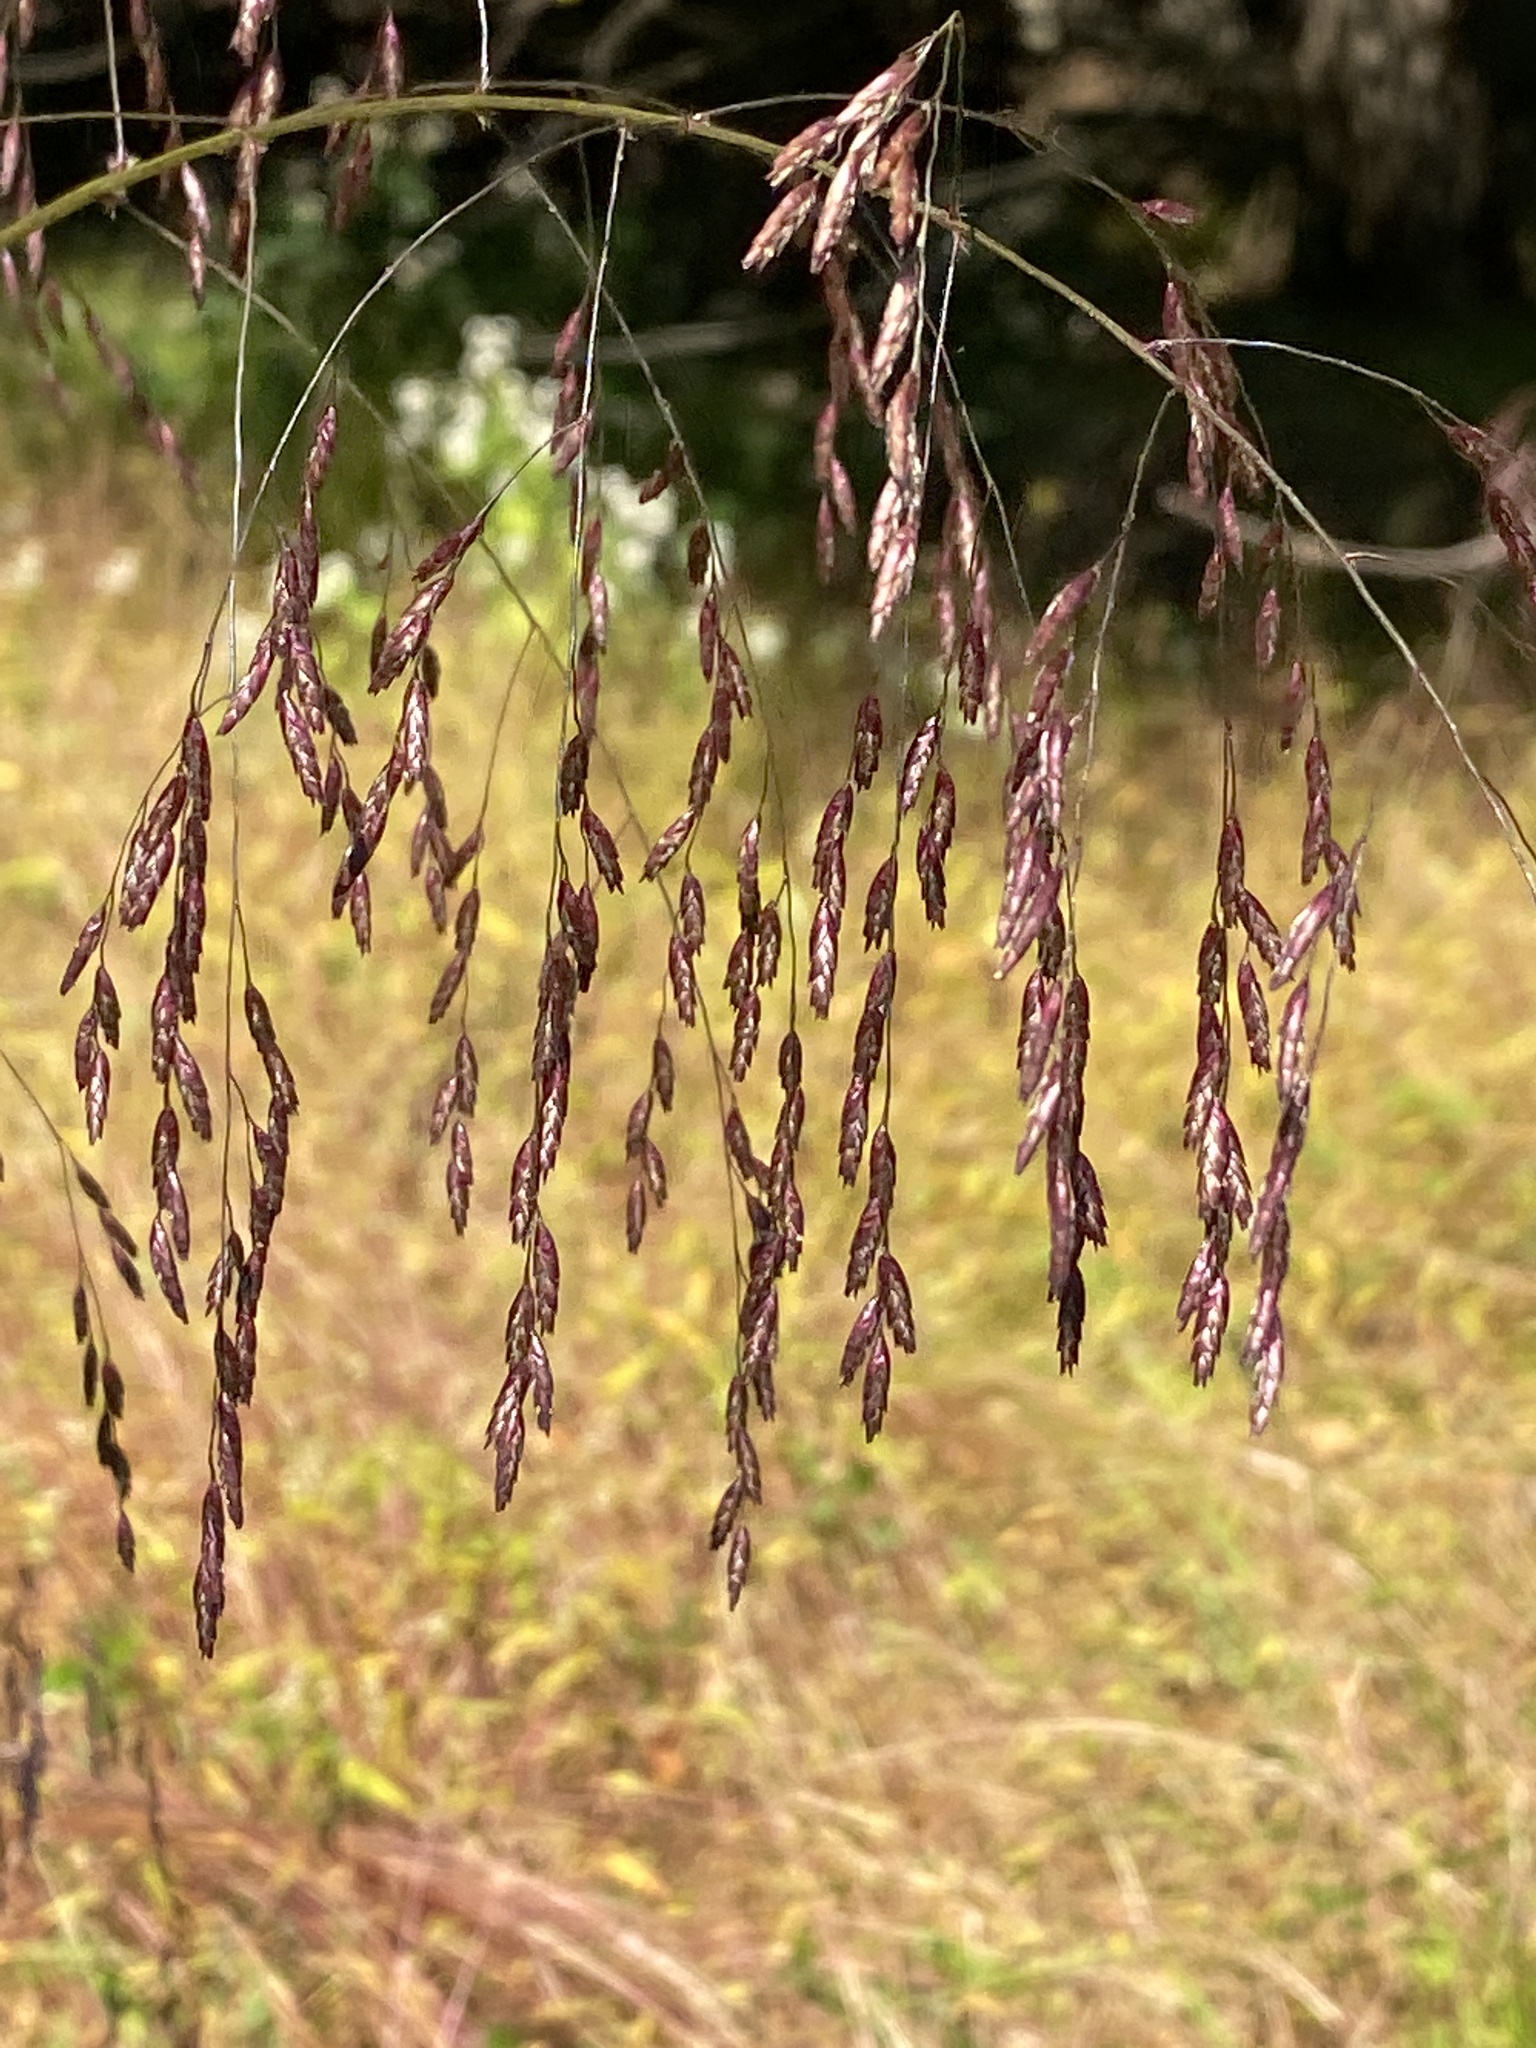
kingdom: Plantae
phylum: Tracheophyta
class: Liliopsida
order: Poales
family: Poaceae
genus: Tridens
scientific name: Tridens flavus
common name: Purpletop
